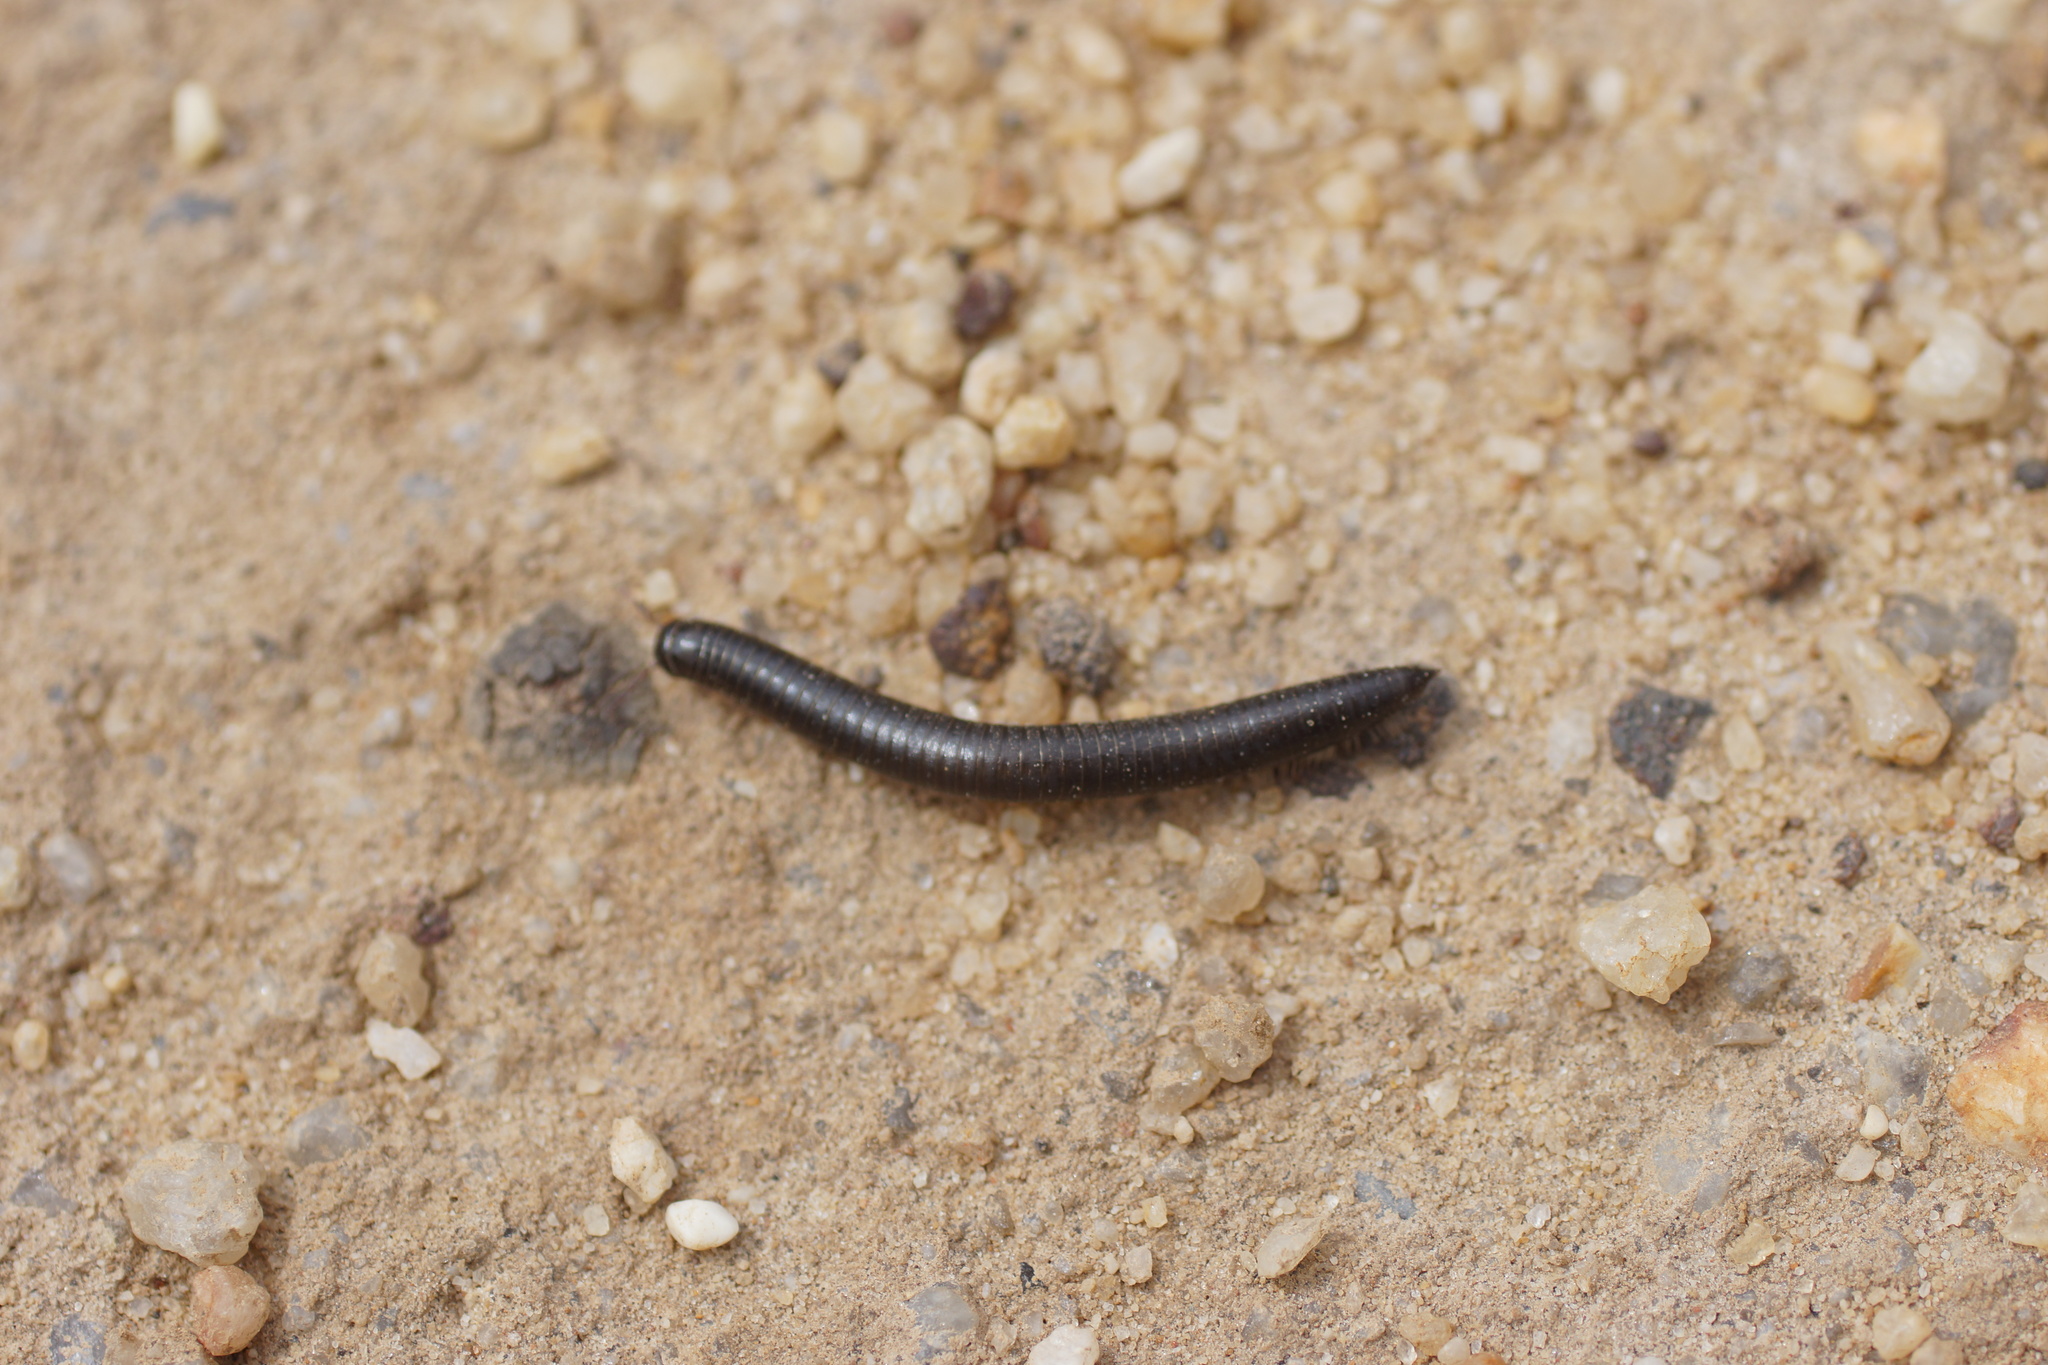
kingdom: Animalia
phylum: Arthropoda
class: Diplopoda
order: Julida
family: Julidae
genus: Ommatoiulus
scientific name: Ommatoiulus moreleti
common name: Portuguese millipede
